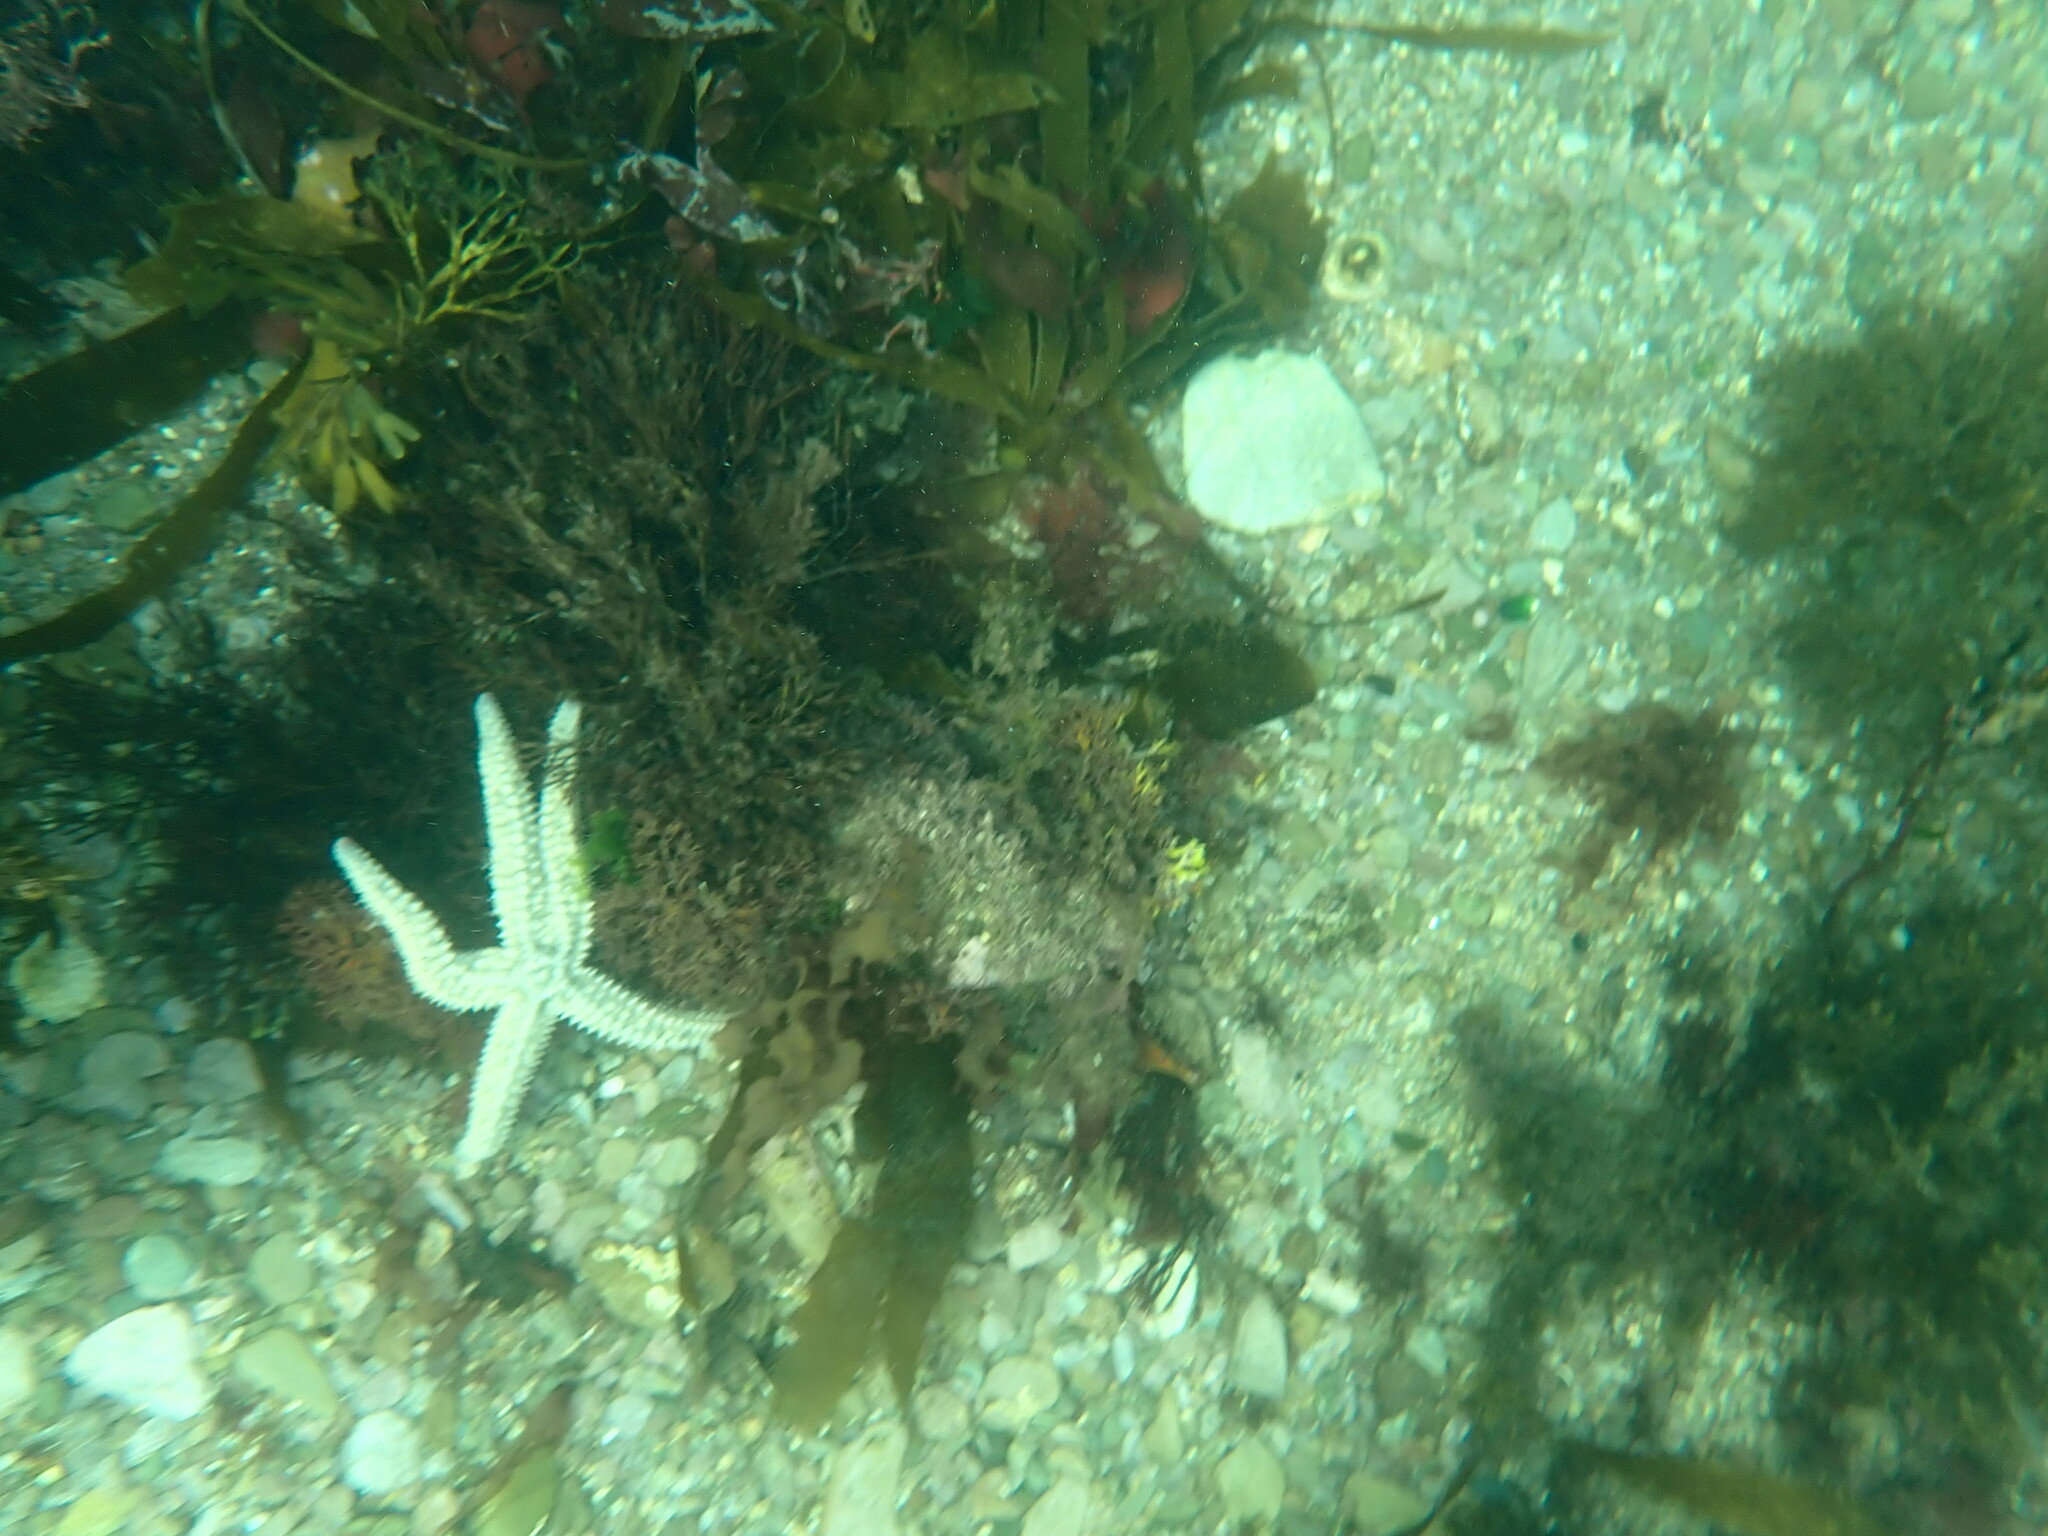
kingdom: Animalia
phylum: Echinodermata
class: Asteroidea
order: Forcipulatida
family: Asteriidae
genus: Marthasterias
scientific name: Marthasterias glacialis
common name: Spiny starfish
